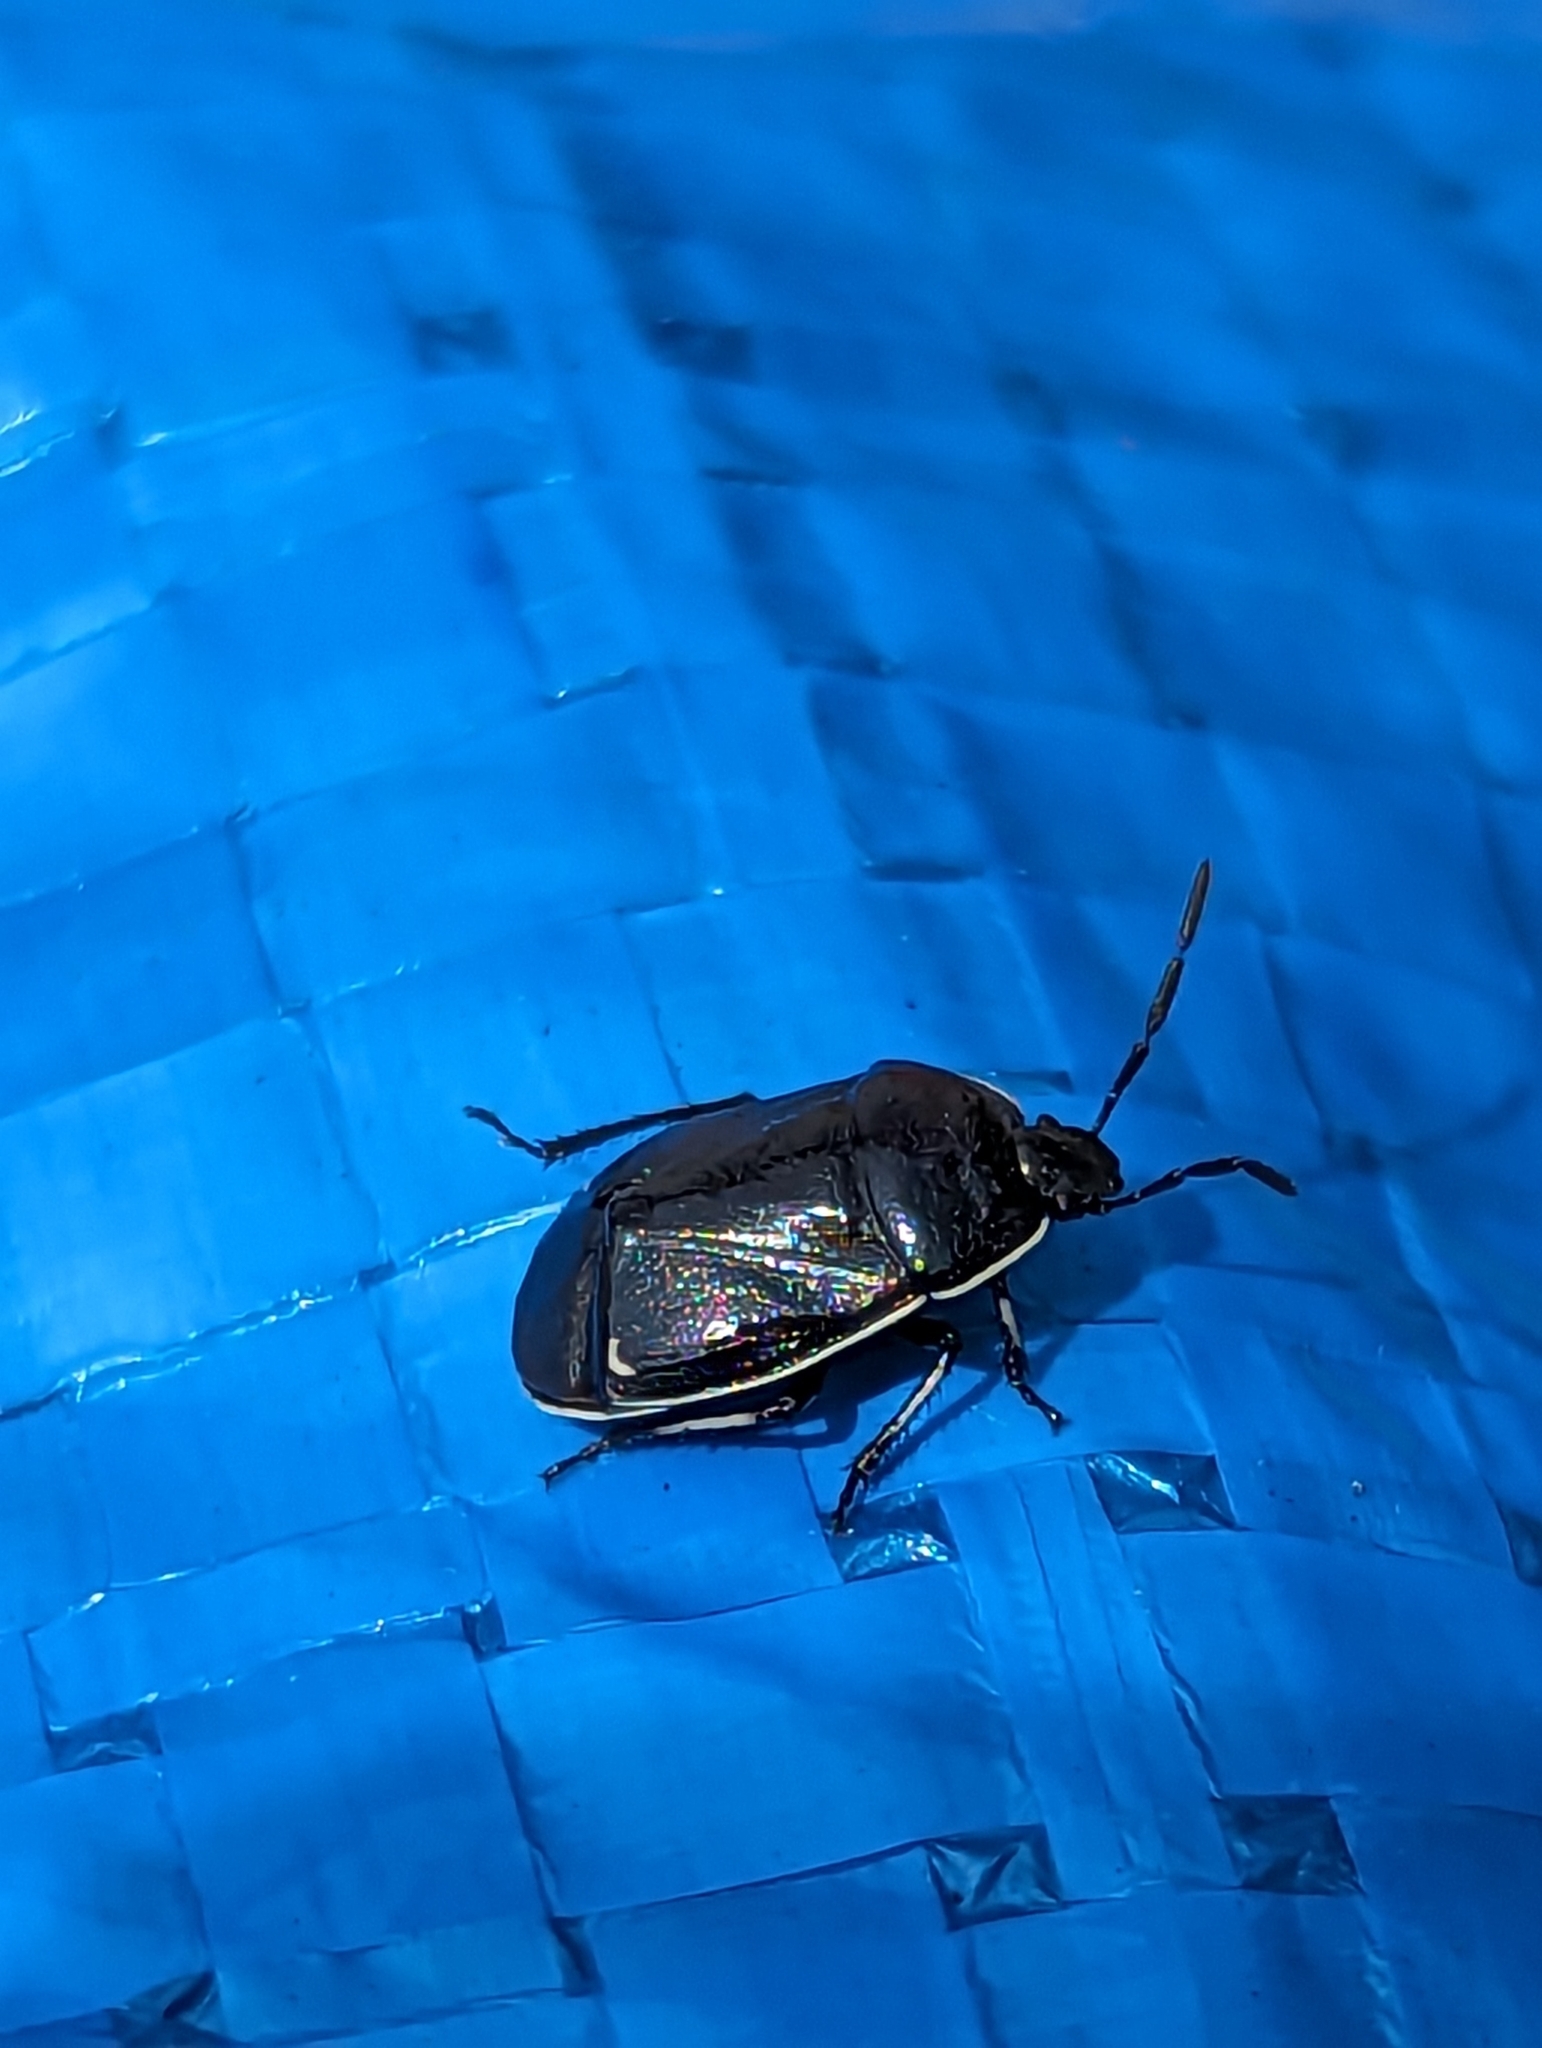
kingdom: Animalia
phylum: Arthropoda
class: Insecta
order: Hemiptera
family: Cydnidae
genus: Sehirus
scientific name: Sehirus cinctus
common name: White-margined burrower bug
